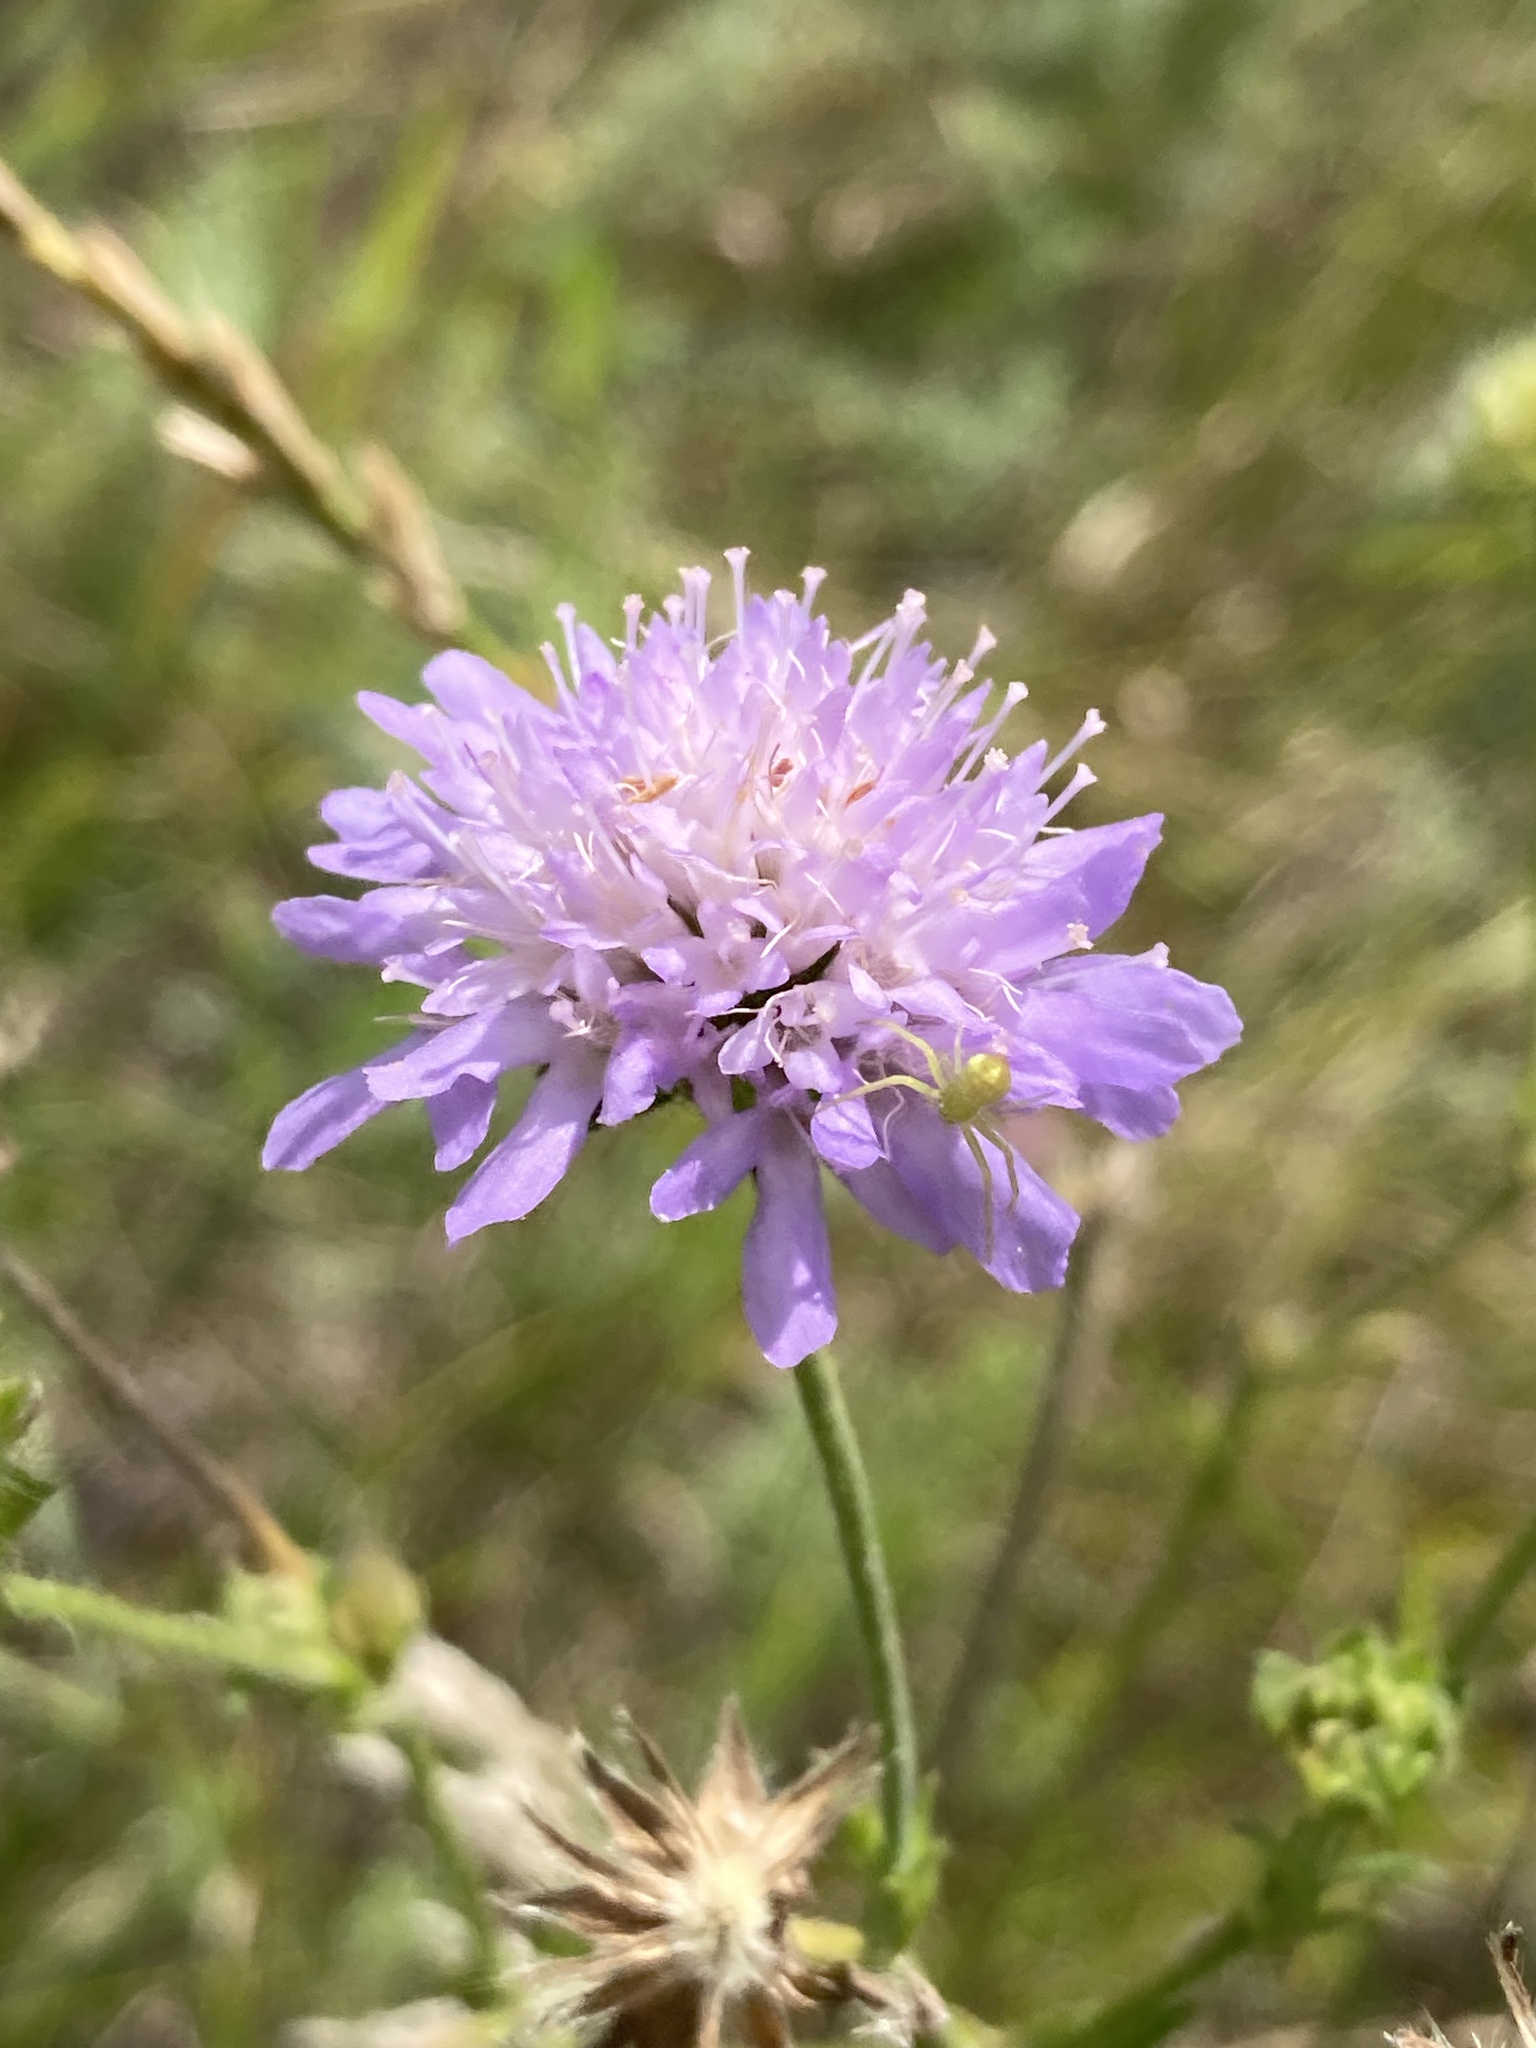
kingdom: Plantae
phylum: Tracheophyta
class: Magnoliopsida
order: Dipsacales
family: Caprifoliaceae
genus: Knautia
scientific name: Knautia arvensis
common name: Field scabiosa
